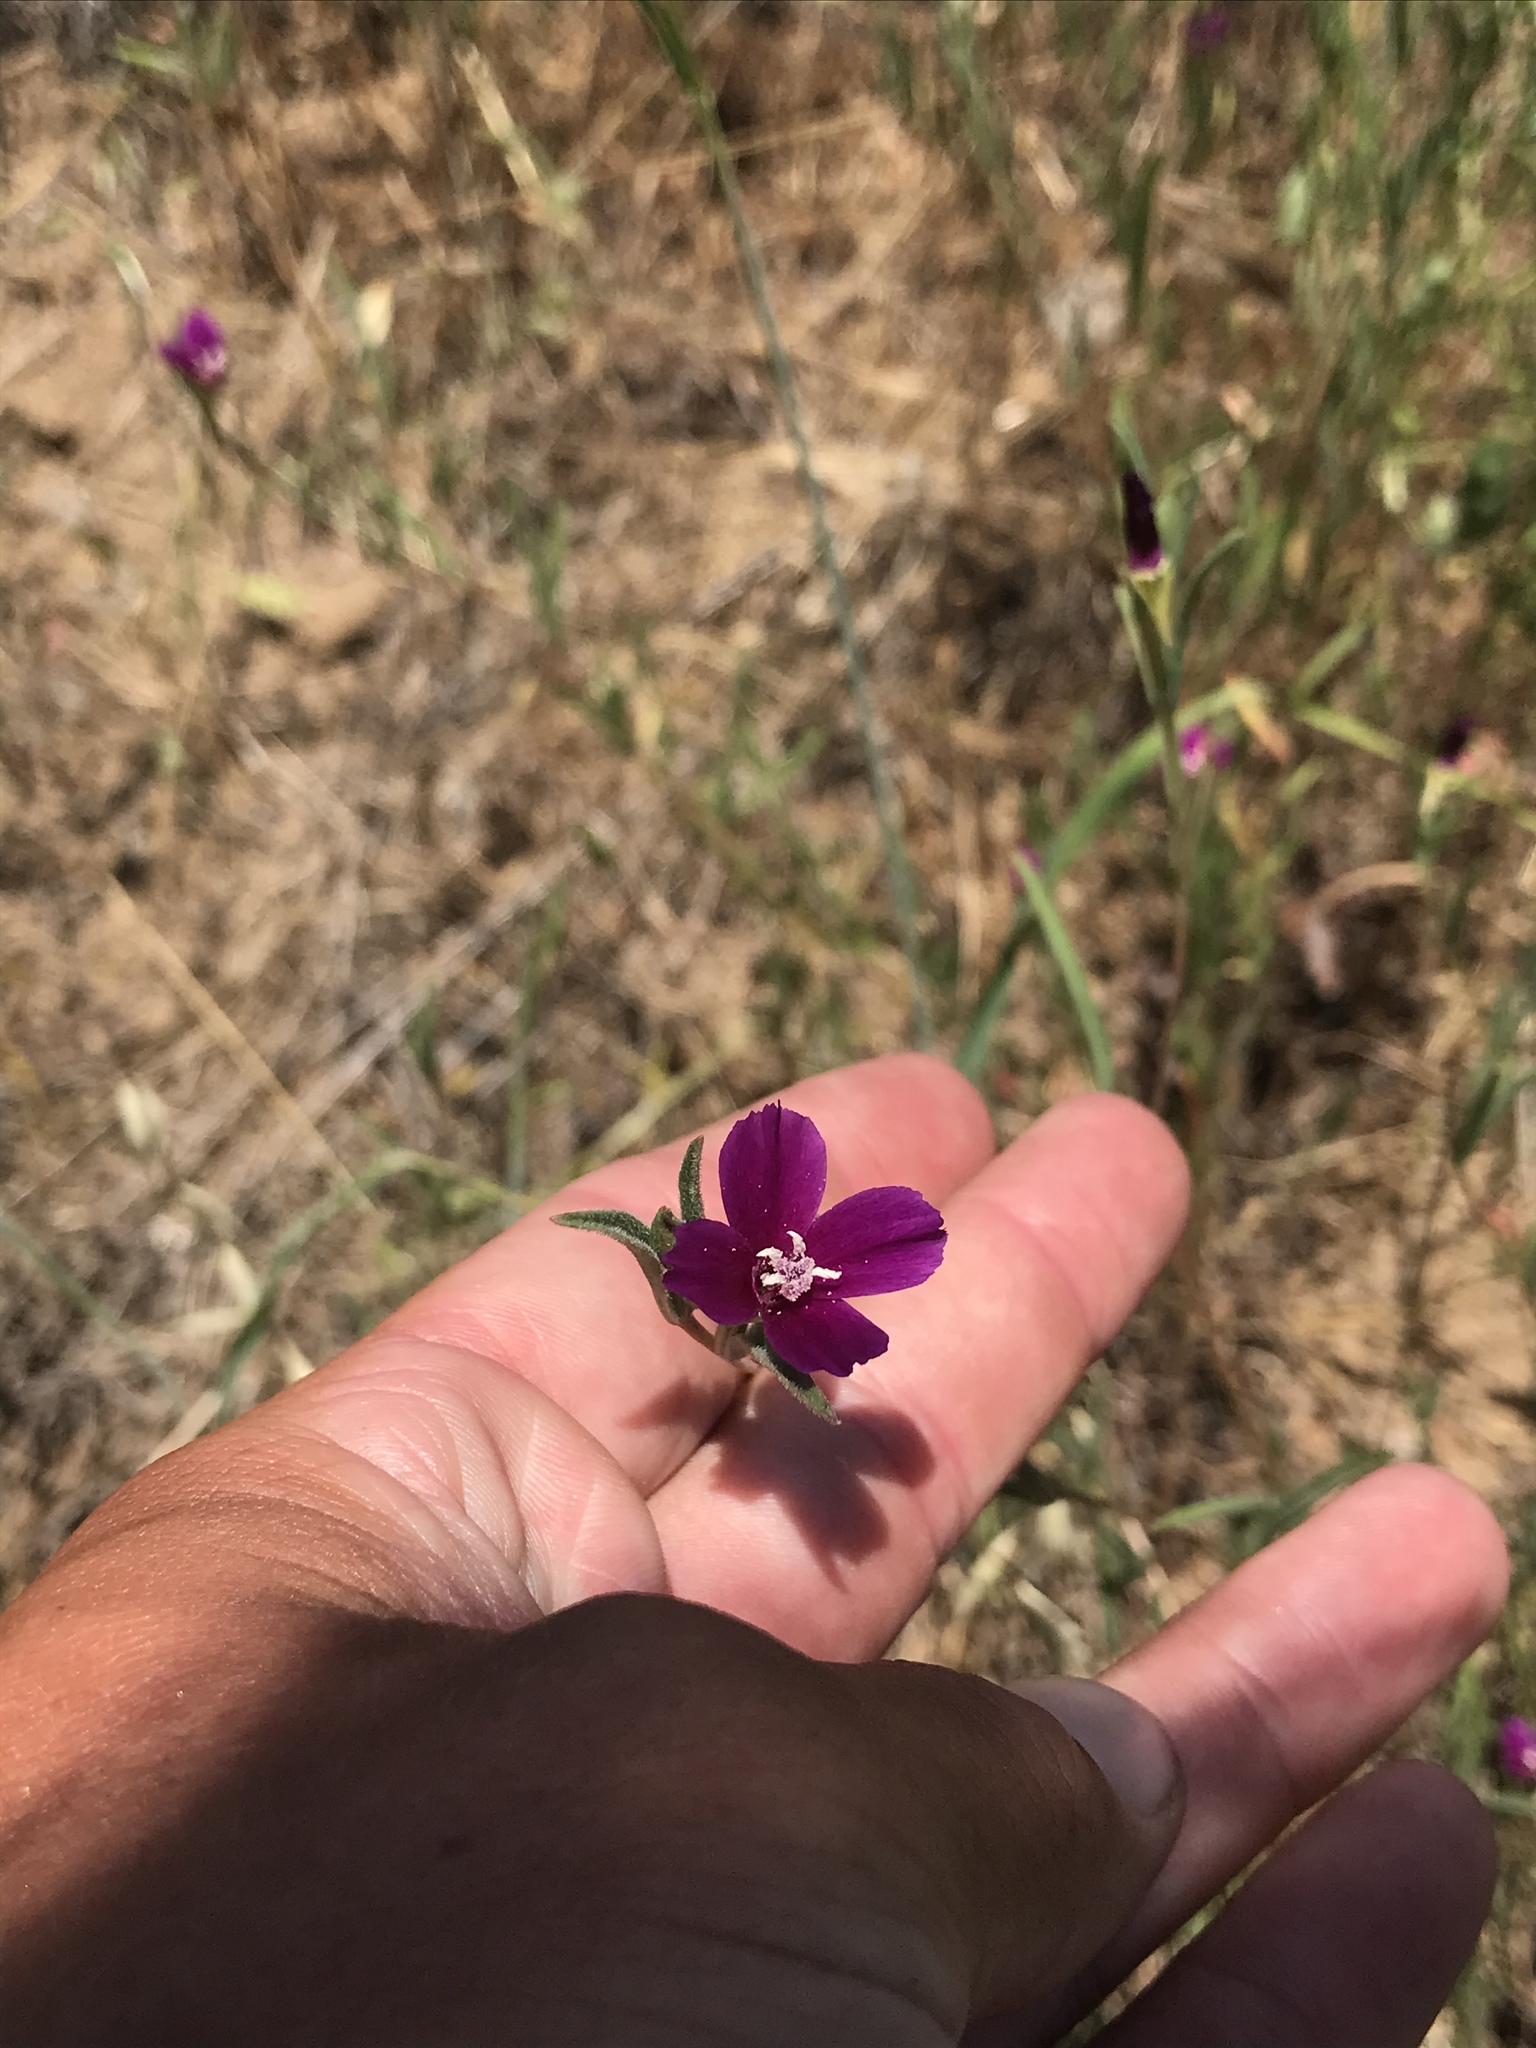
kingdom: Plantae
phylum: Tracheophyta
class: Magnoliopsida
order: Myrtales
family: Onagraceae
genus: Clarkia
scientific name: Clarkia purpurea
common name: Purple clarkia
